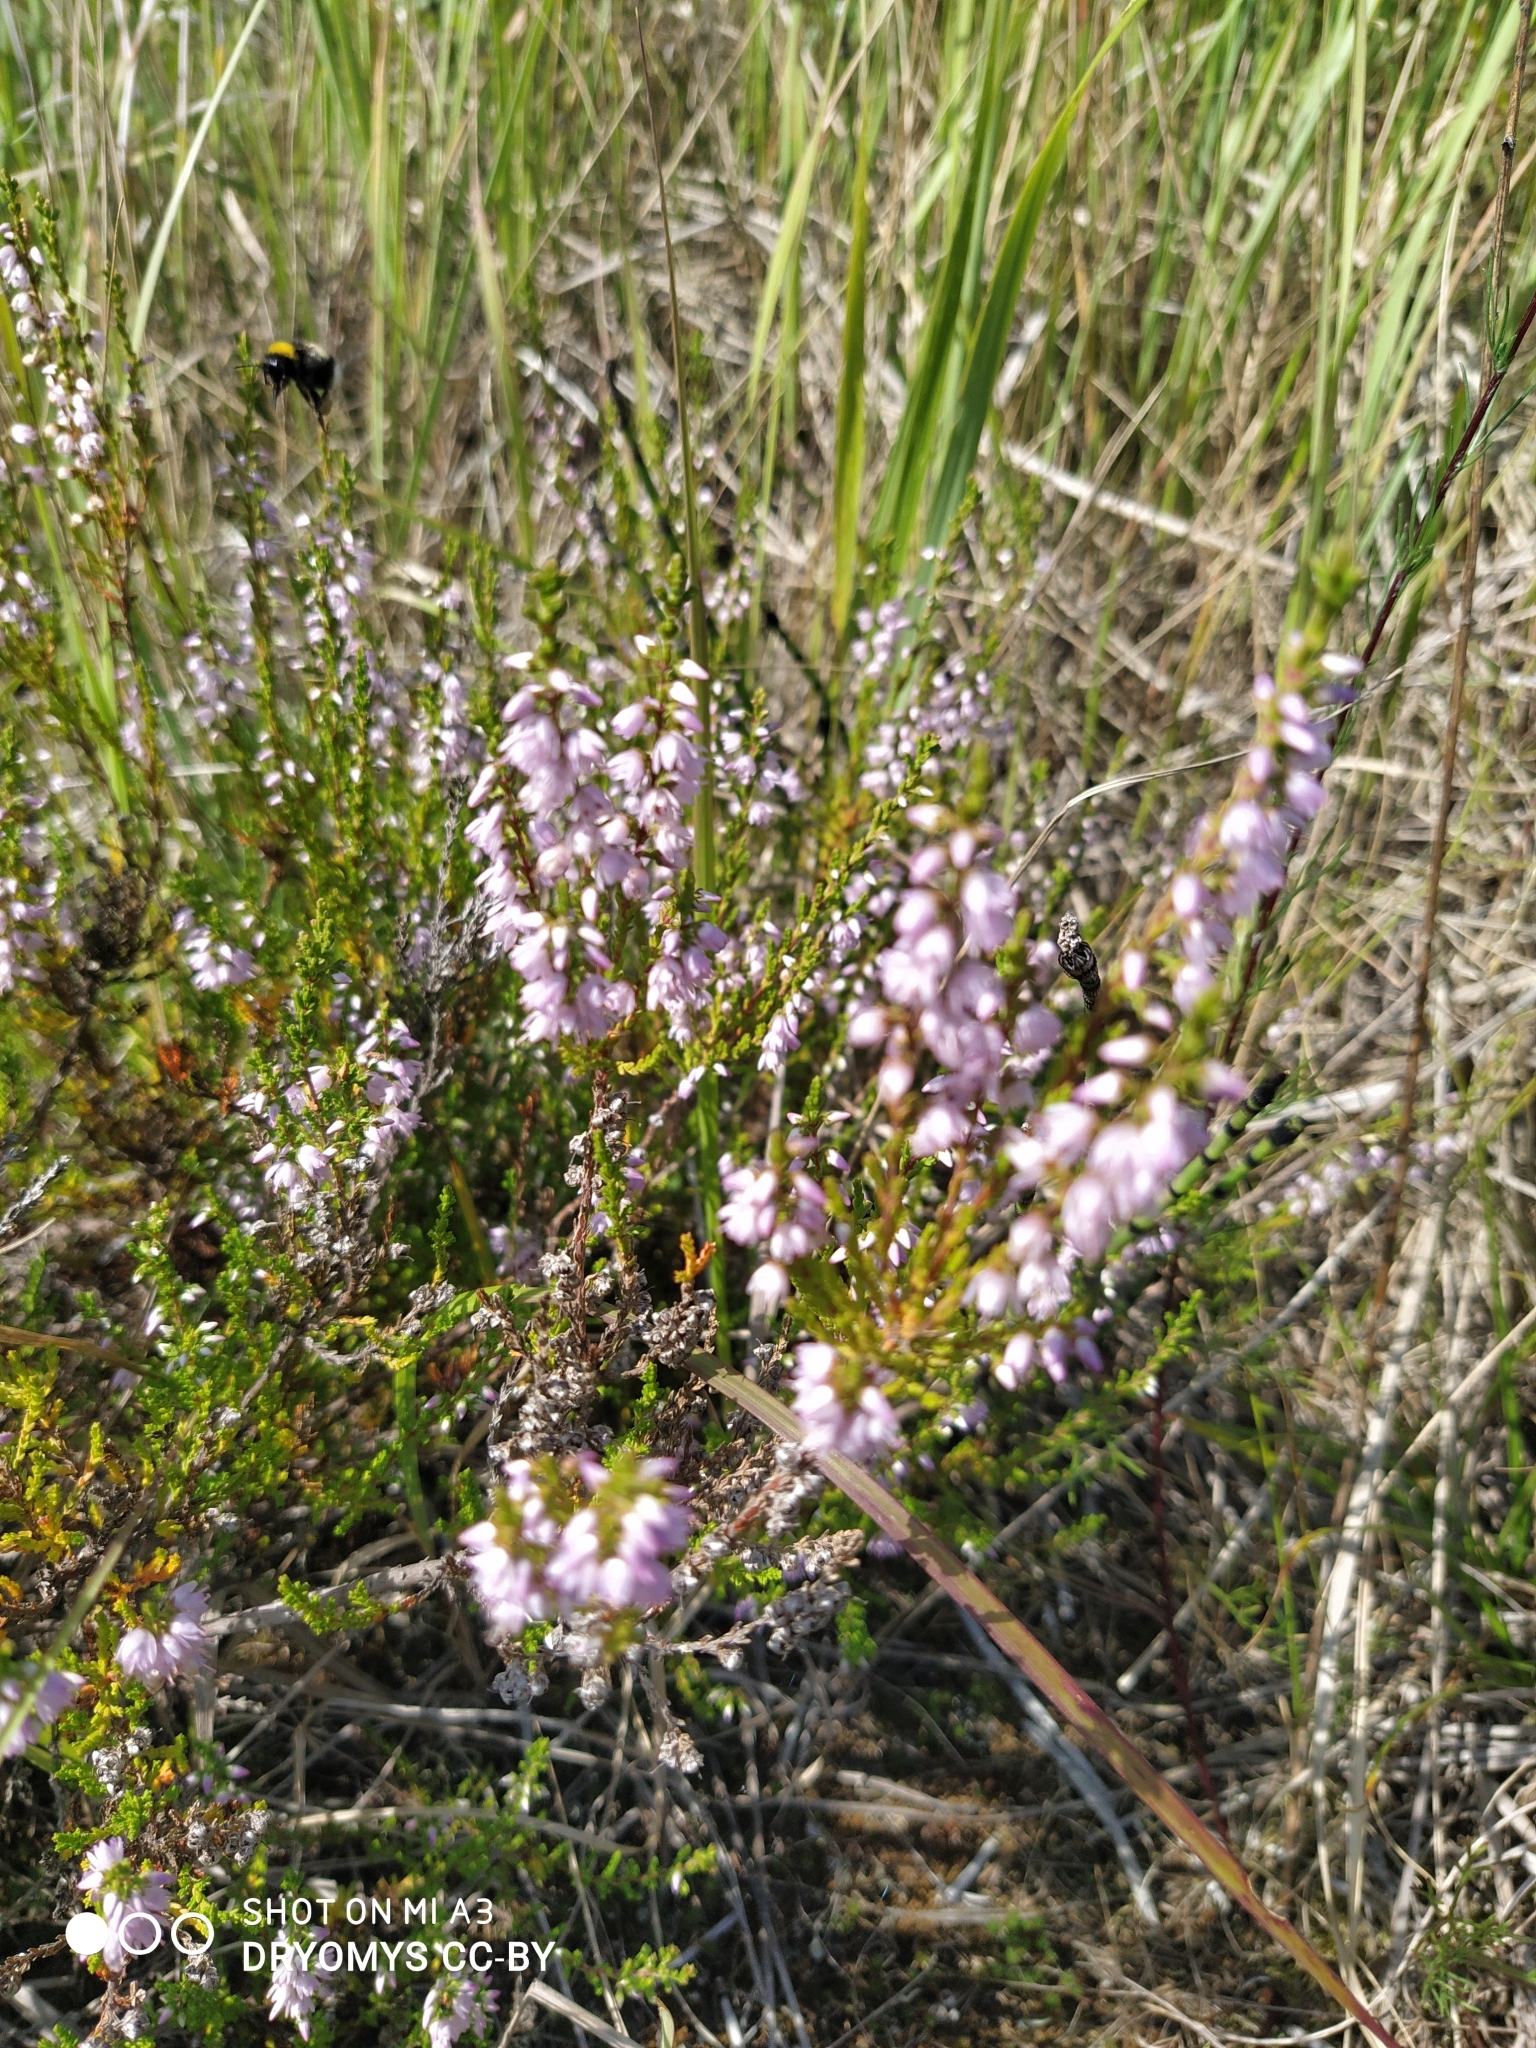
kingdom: Plantae
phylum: Tracheophyta
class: Magnoliopsida
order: Ericales
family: Ericaceae
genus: Calluna
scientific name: Calluna vulgaris
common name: Heather
